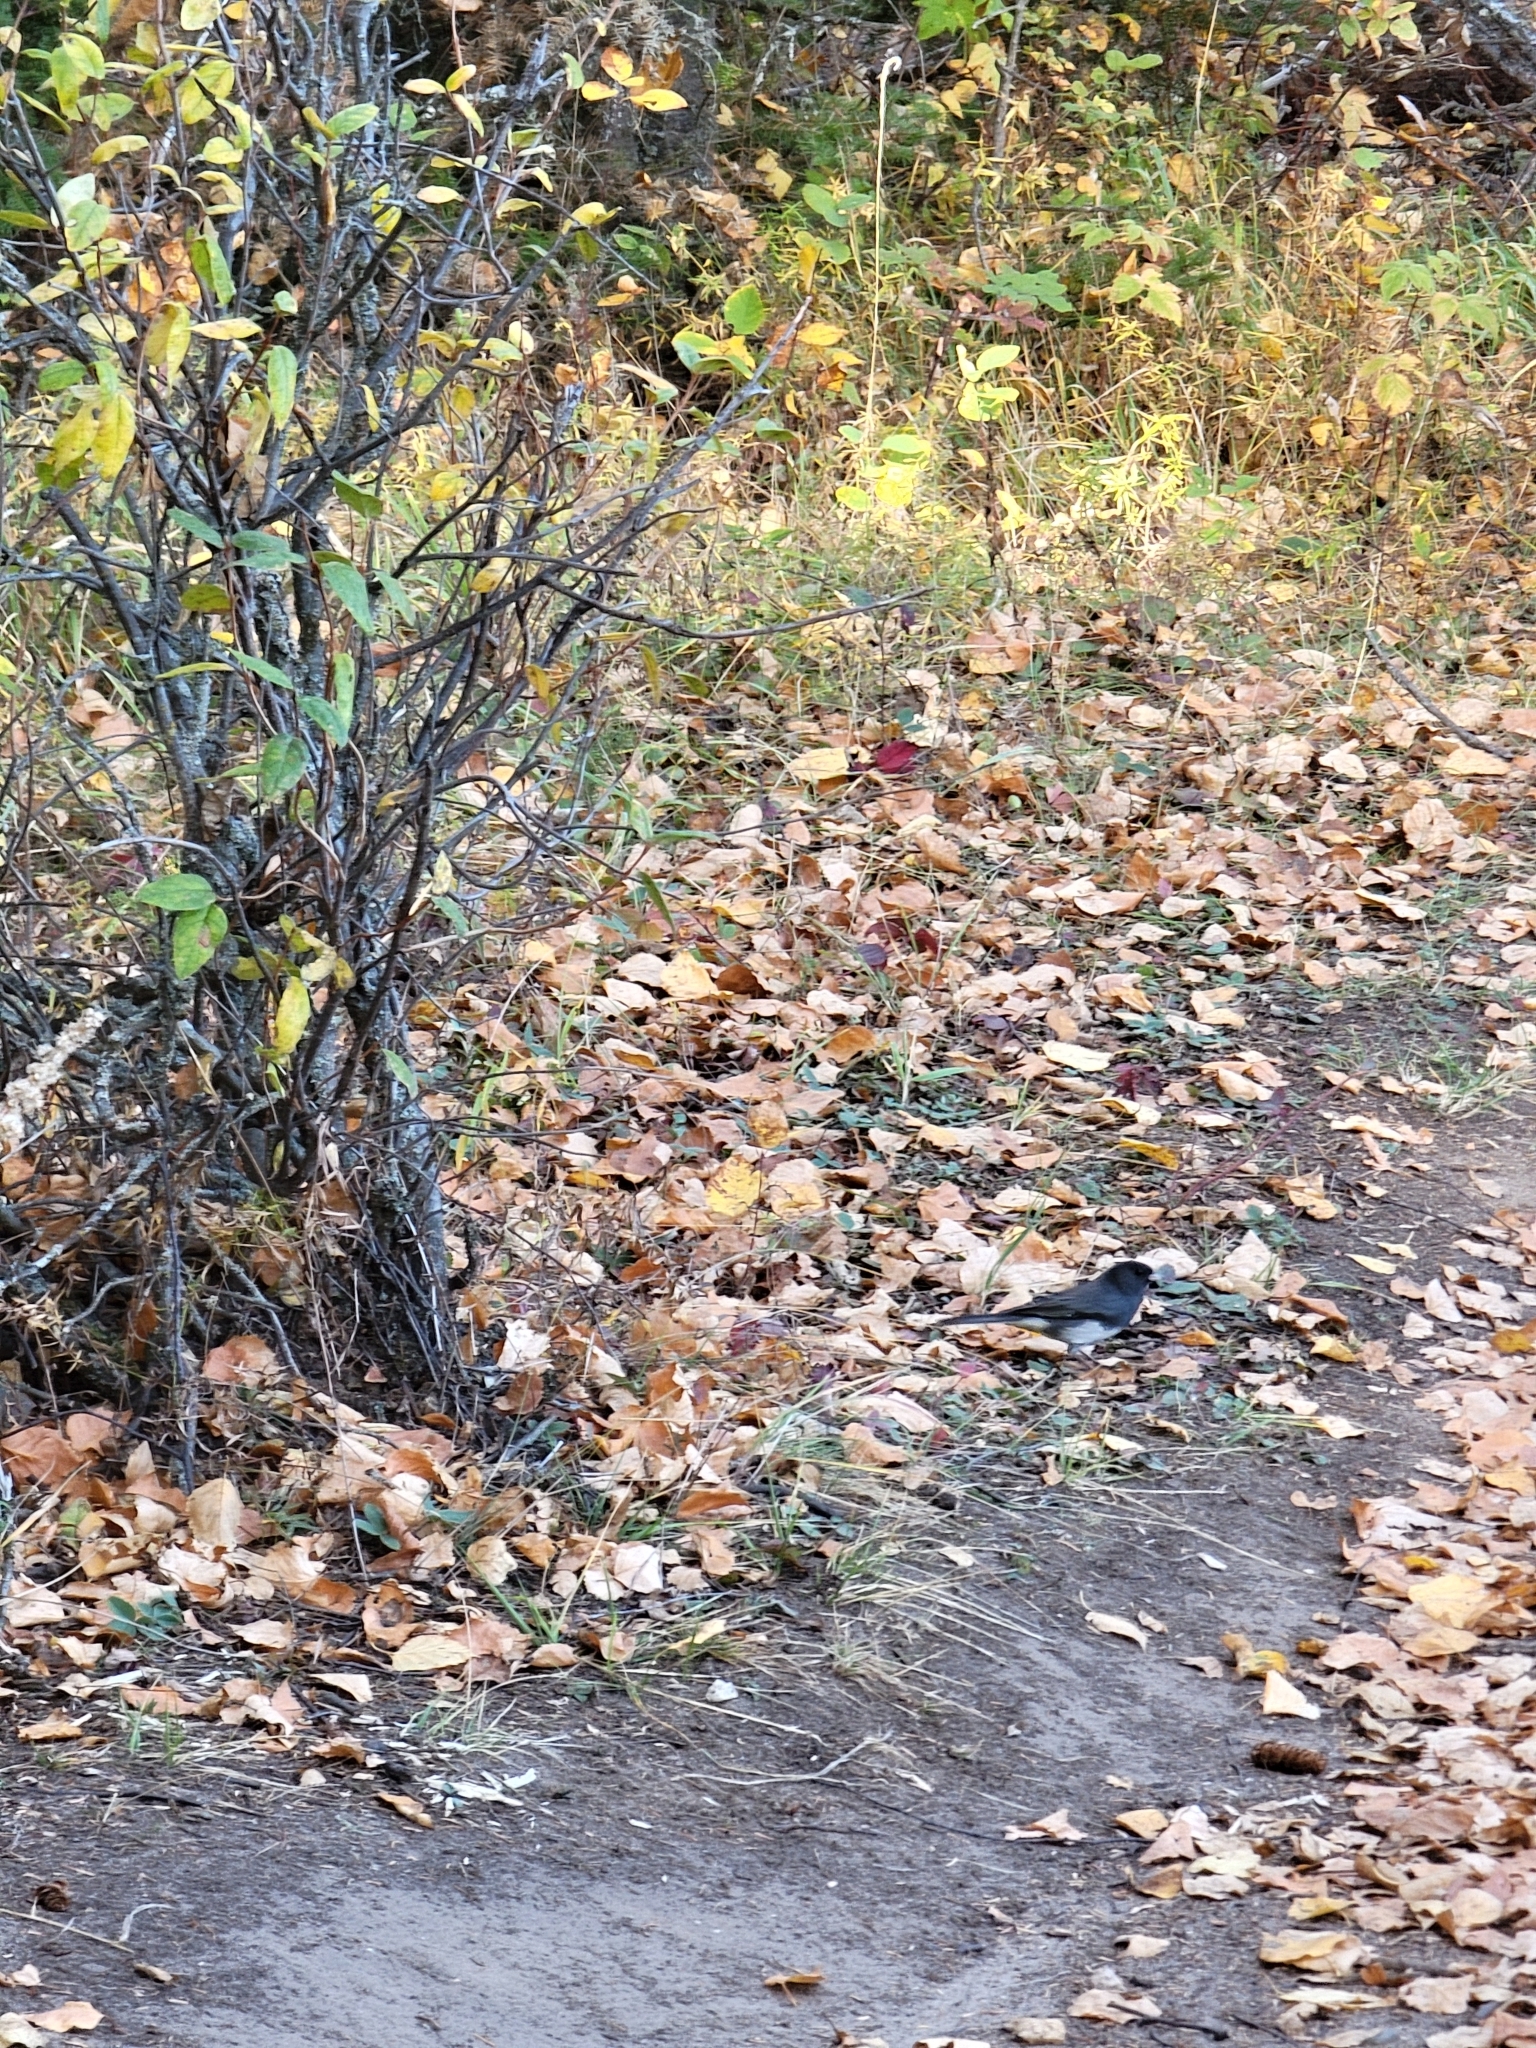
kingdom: Animalia
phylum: Chordata
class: Aves
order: Passeriformes
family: Passerellidae
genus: Junco
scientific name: Junco hyemalis
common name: Dark-eyed junco
